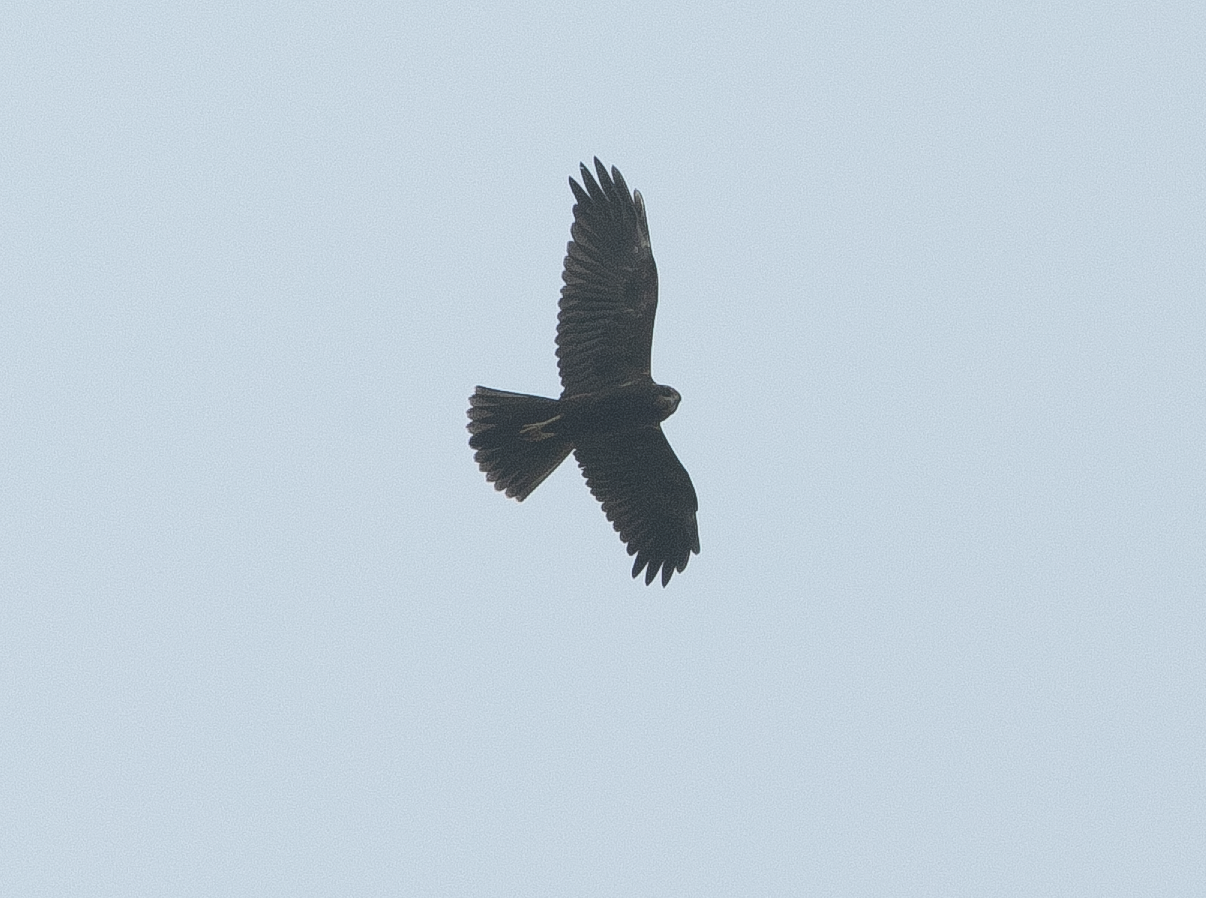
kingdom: Animalia
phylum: Chordata
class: Aves
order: Accipitriformes
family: Accipitridae
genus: Circus
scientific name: Circus aeruginosus
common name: Western marsh harrier
